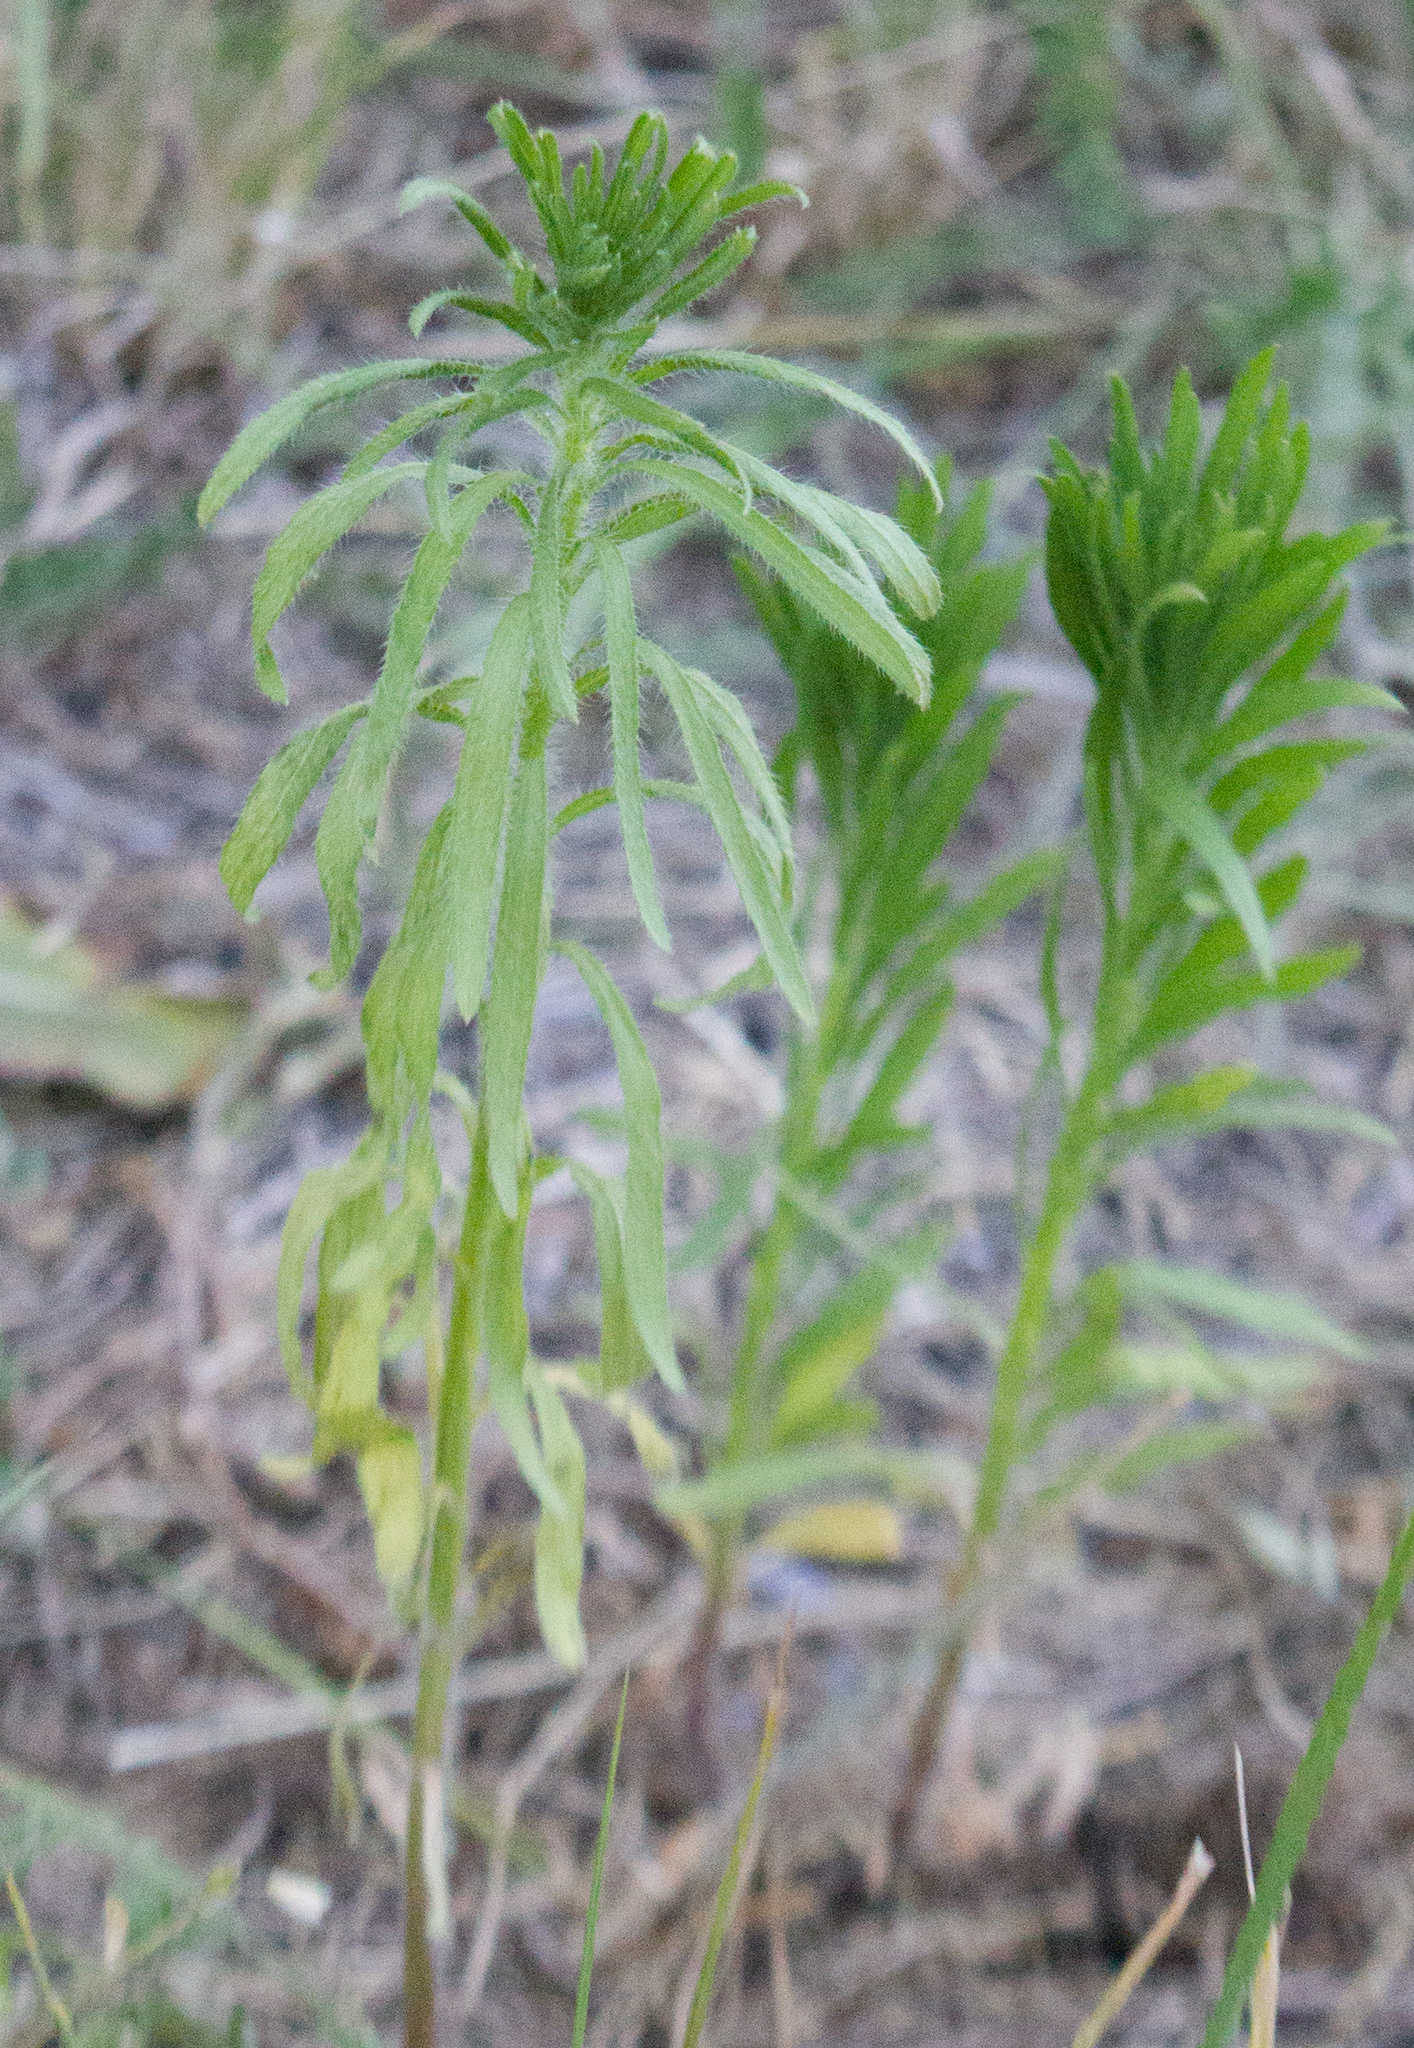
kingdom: Plantae
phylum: Tracheophyta
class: Magnoliopsida
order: Asterales
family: Asteraceae
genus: Erigeron
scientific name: Erigeron canadensis
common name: Canadian fleabane
